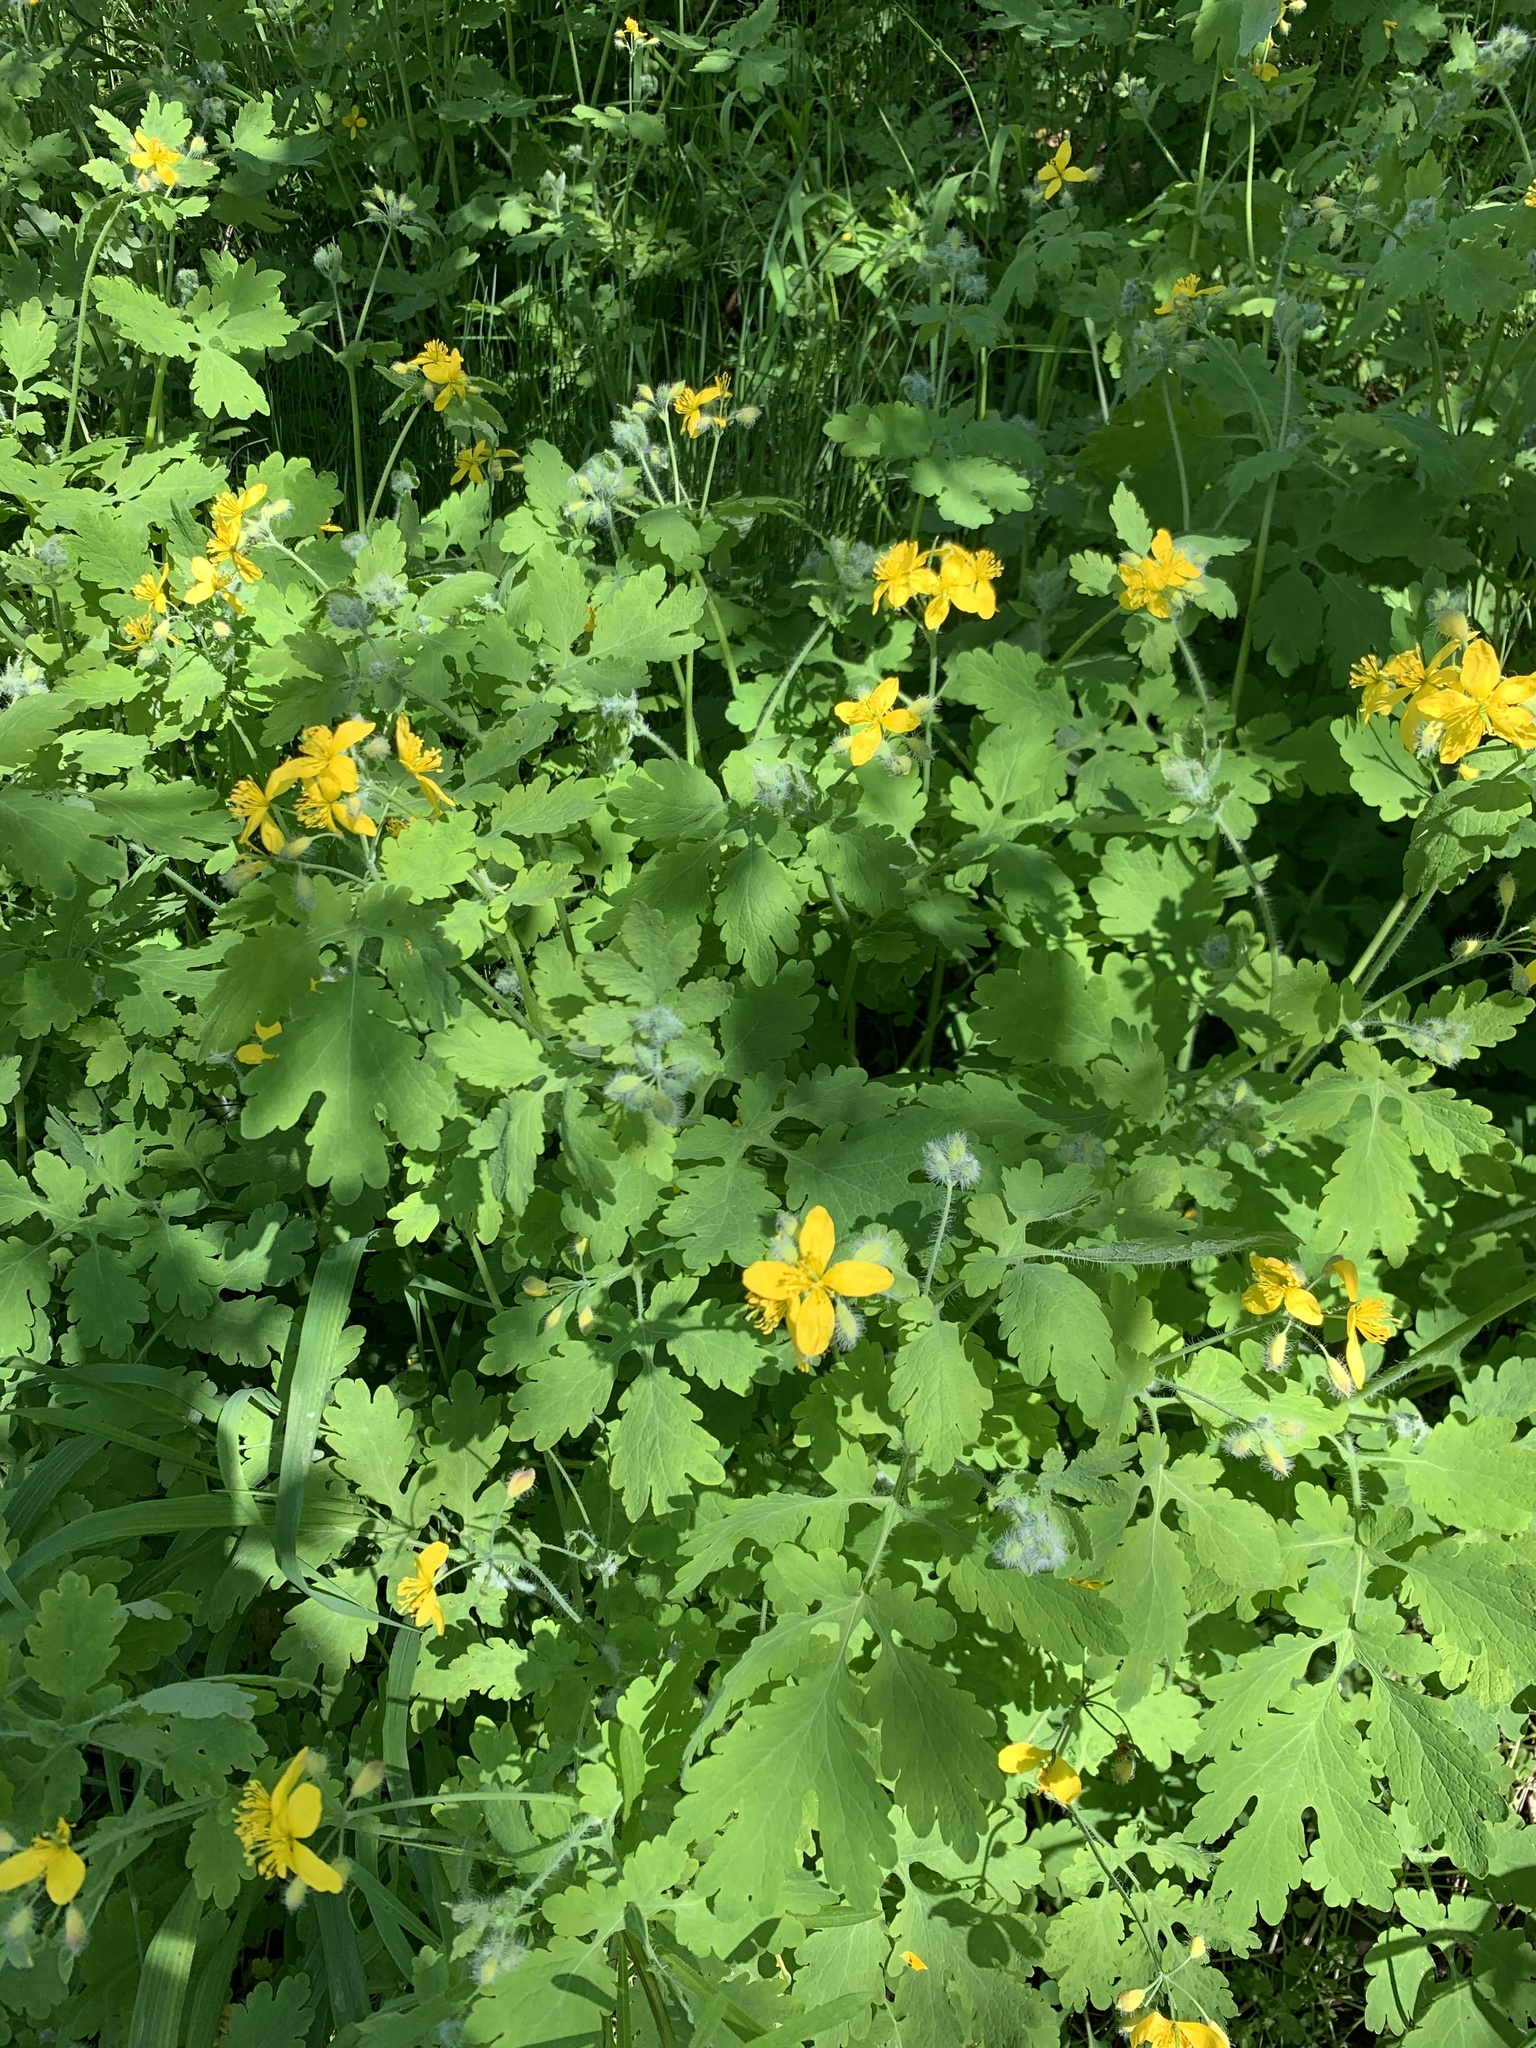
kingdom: Plantae
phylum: Tracheophyta
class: Magnoliopsida
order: Ranunculales
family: Papaveraceae
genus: Chelidonium
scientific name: Chelidonium majus
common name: Greater celandine
